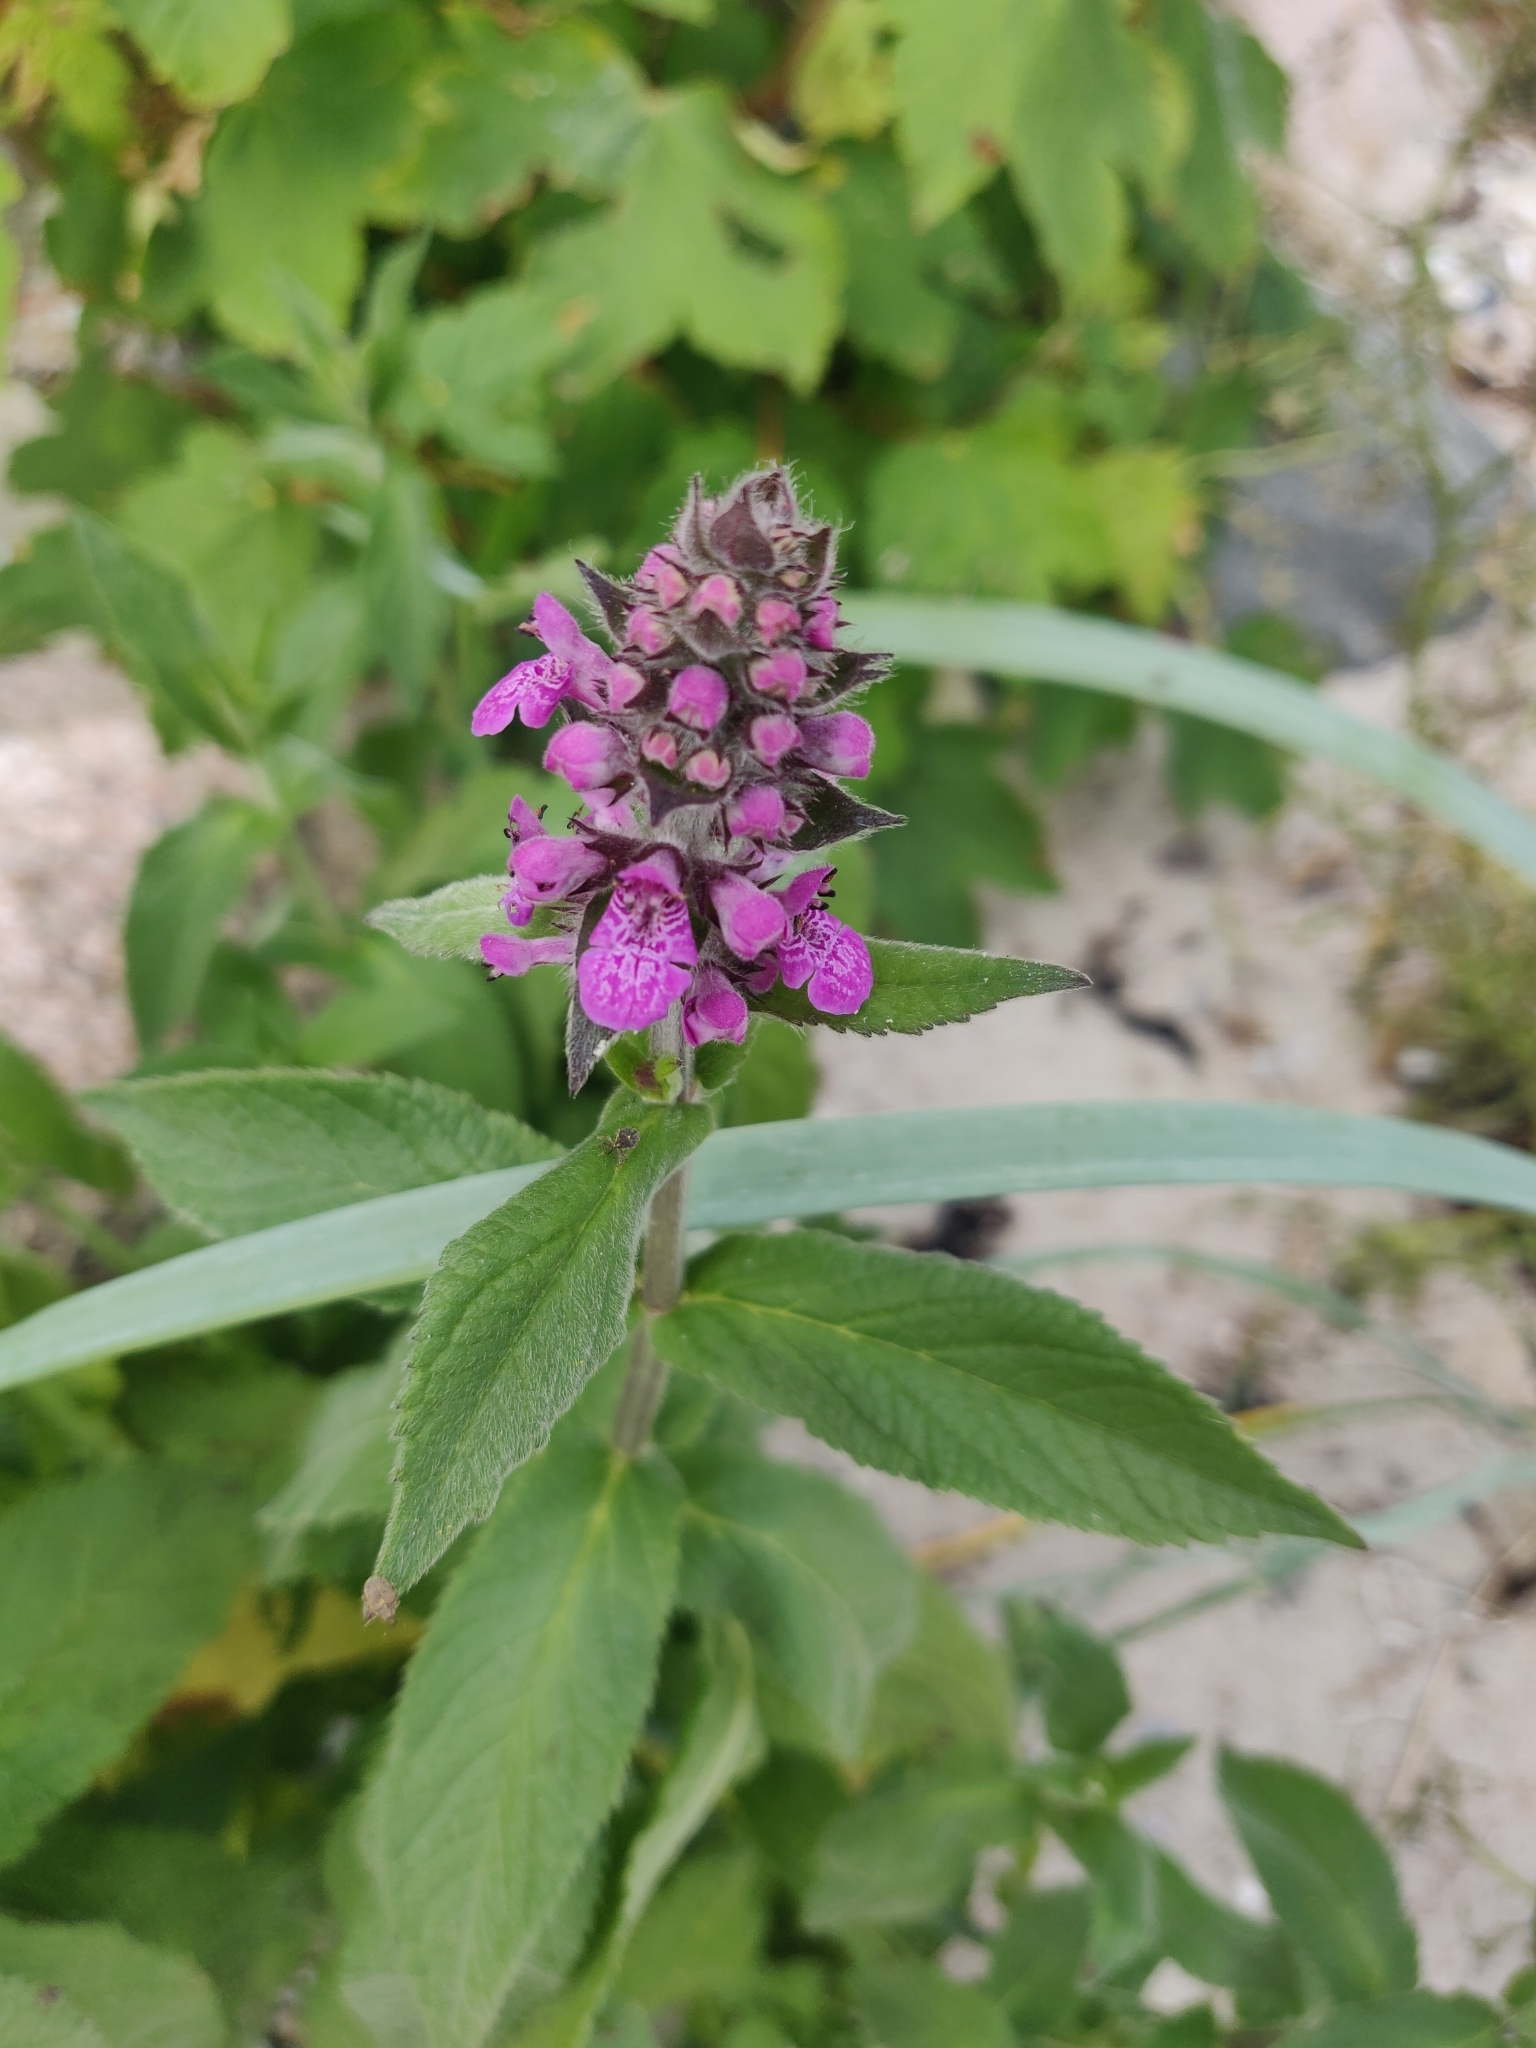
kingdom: Plantae
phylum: Tracheophyta
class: Magnoliopsida
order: Lamiales
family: Lamiaceae
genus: Stachys
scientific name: Stachys palustris
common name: Marsh woundwort
